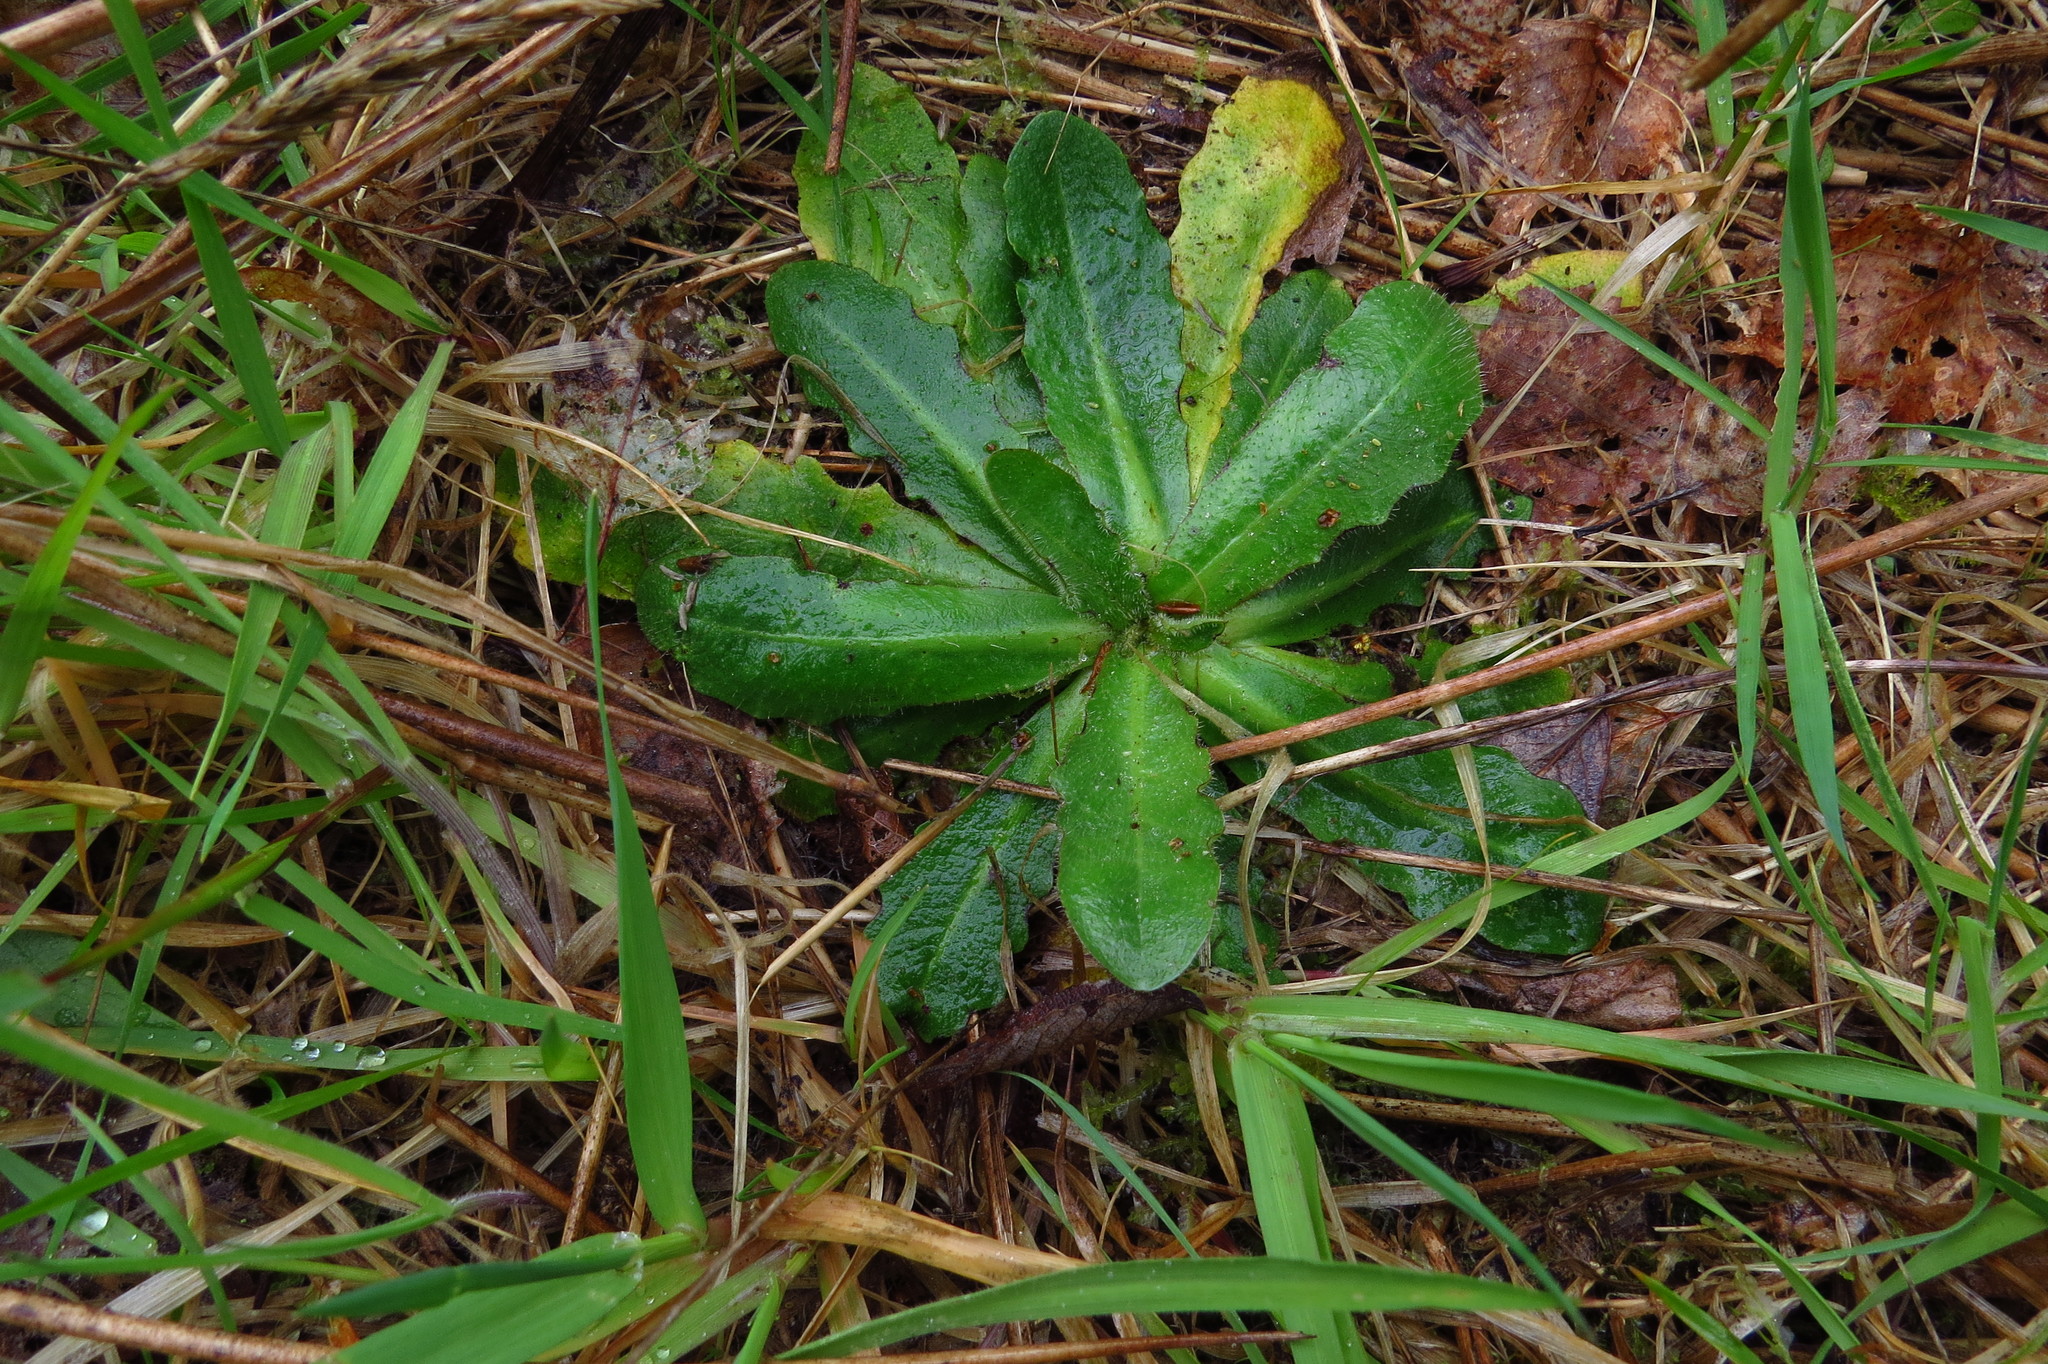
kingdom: Plantae
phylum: Tracheophyta
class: Magnoliopsida
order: Asterales
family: Asteraceae
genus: Hypochaeris
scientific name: Hypochaeris radicata
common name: Flatweed
